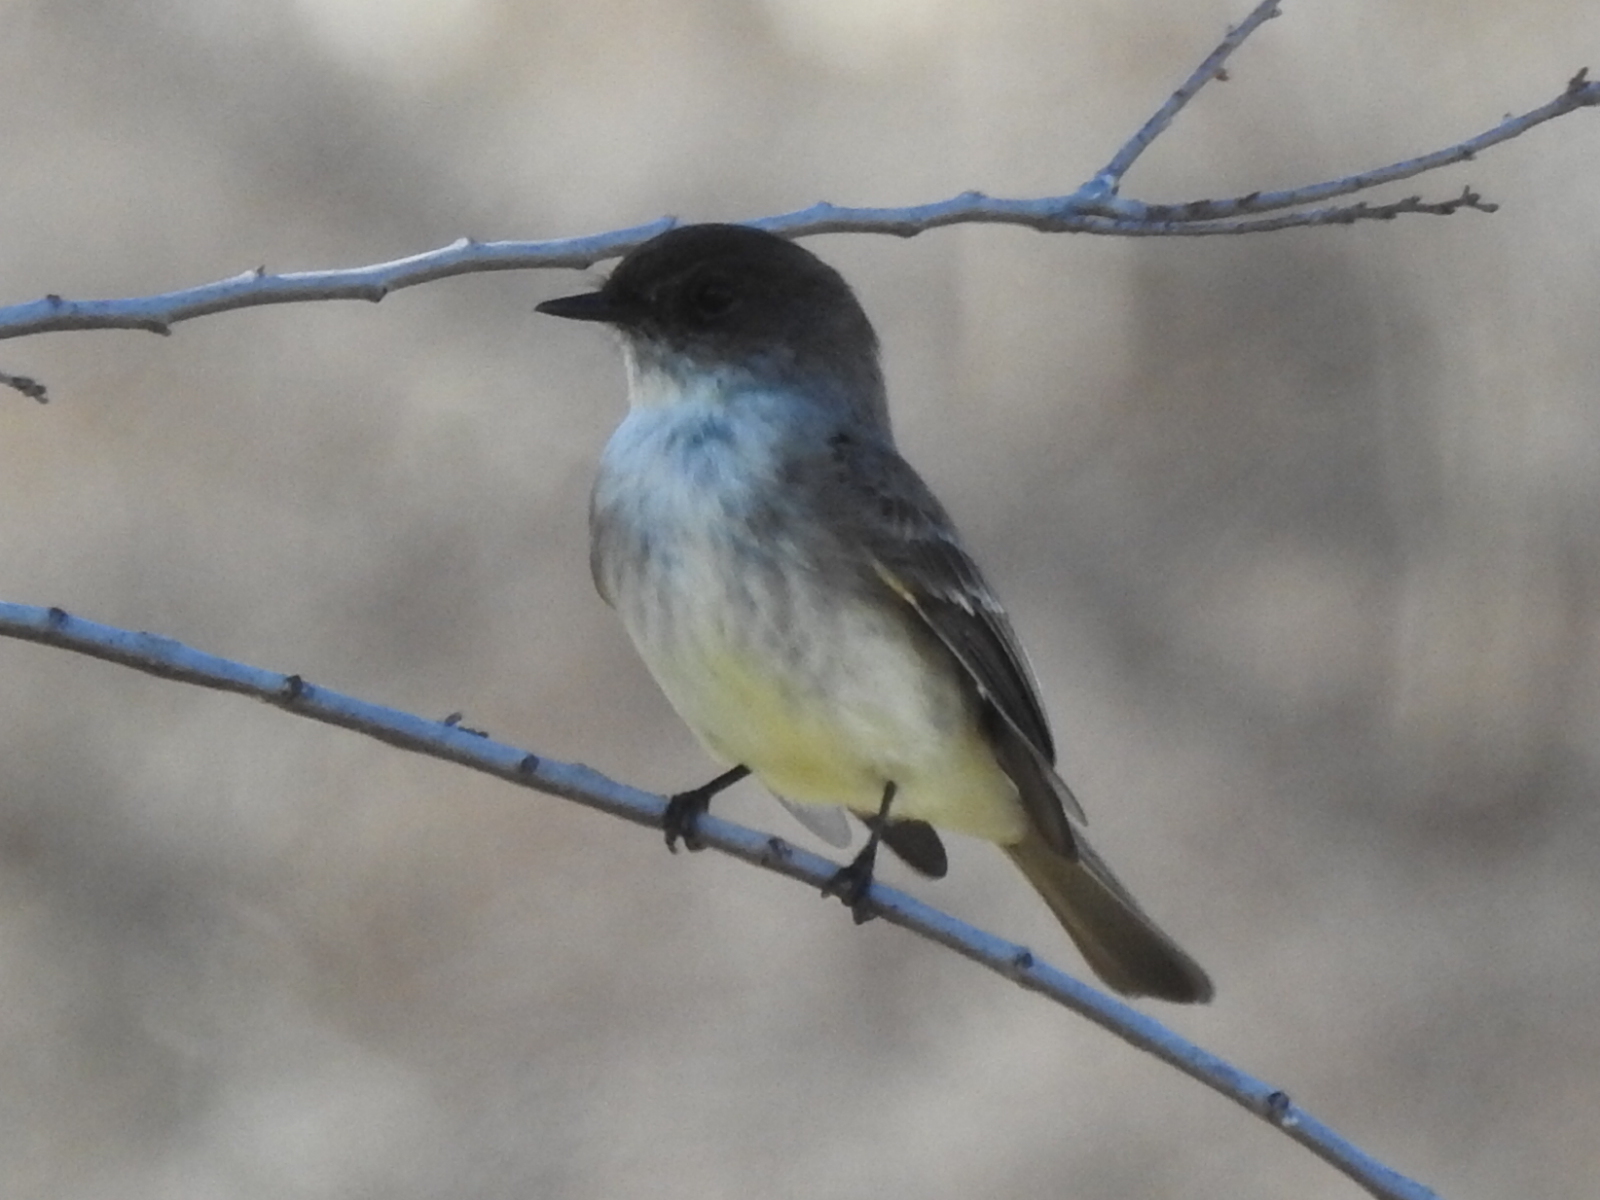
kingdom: Animalia
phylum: Chordata
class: Aves
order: Passeriformes
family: Tyrannidae
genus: Sayornis
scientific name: Sayornis phoebe
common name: Eastern phoebe
